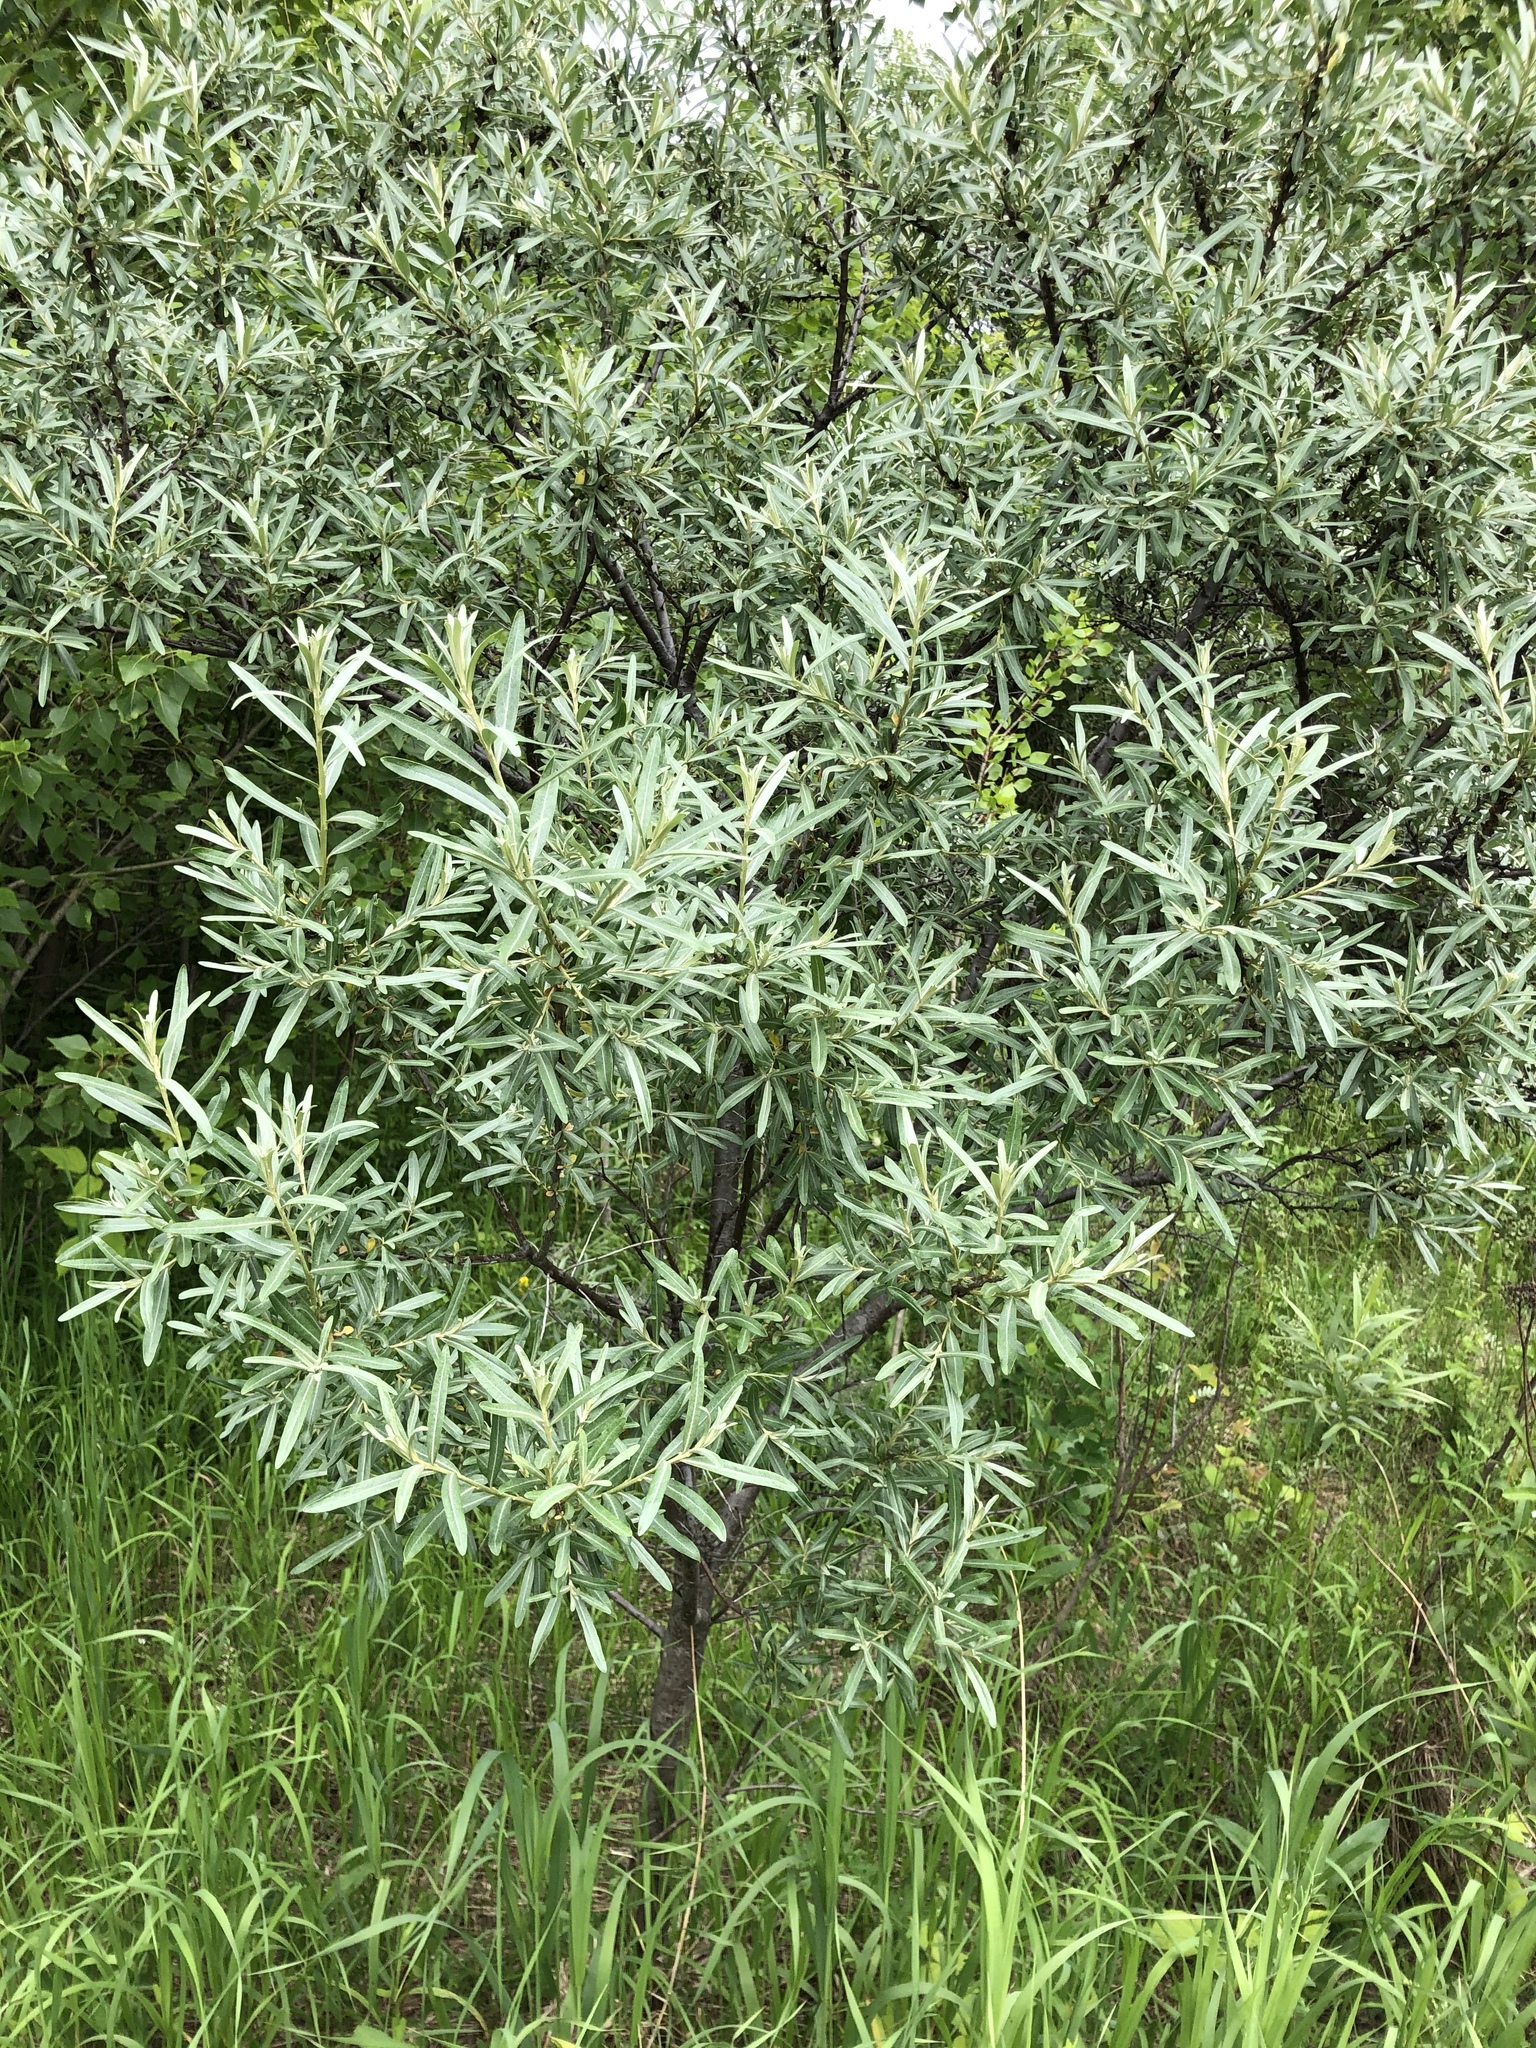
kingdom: Plantae
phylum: Tracheophyta
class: Magnoliopsida
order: Rosales
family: Elaeagnaceae
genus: Hippophae
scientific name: Hippophae rhamnoides
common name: Sea-buckthorn
